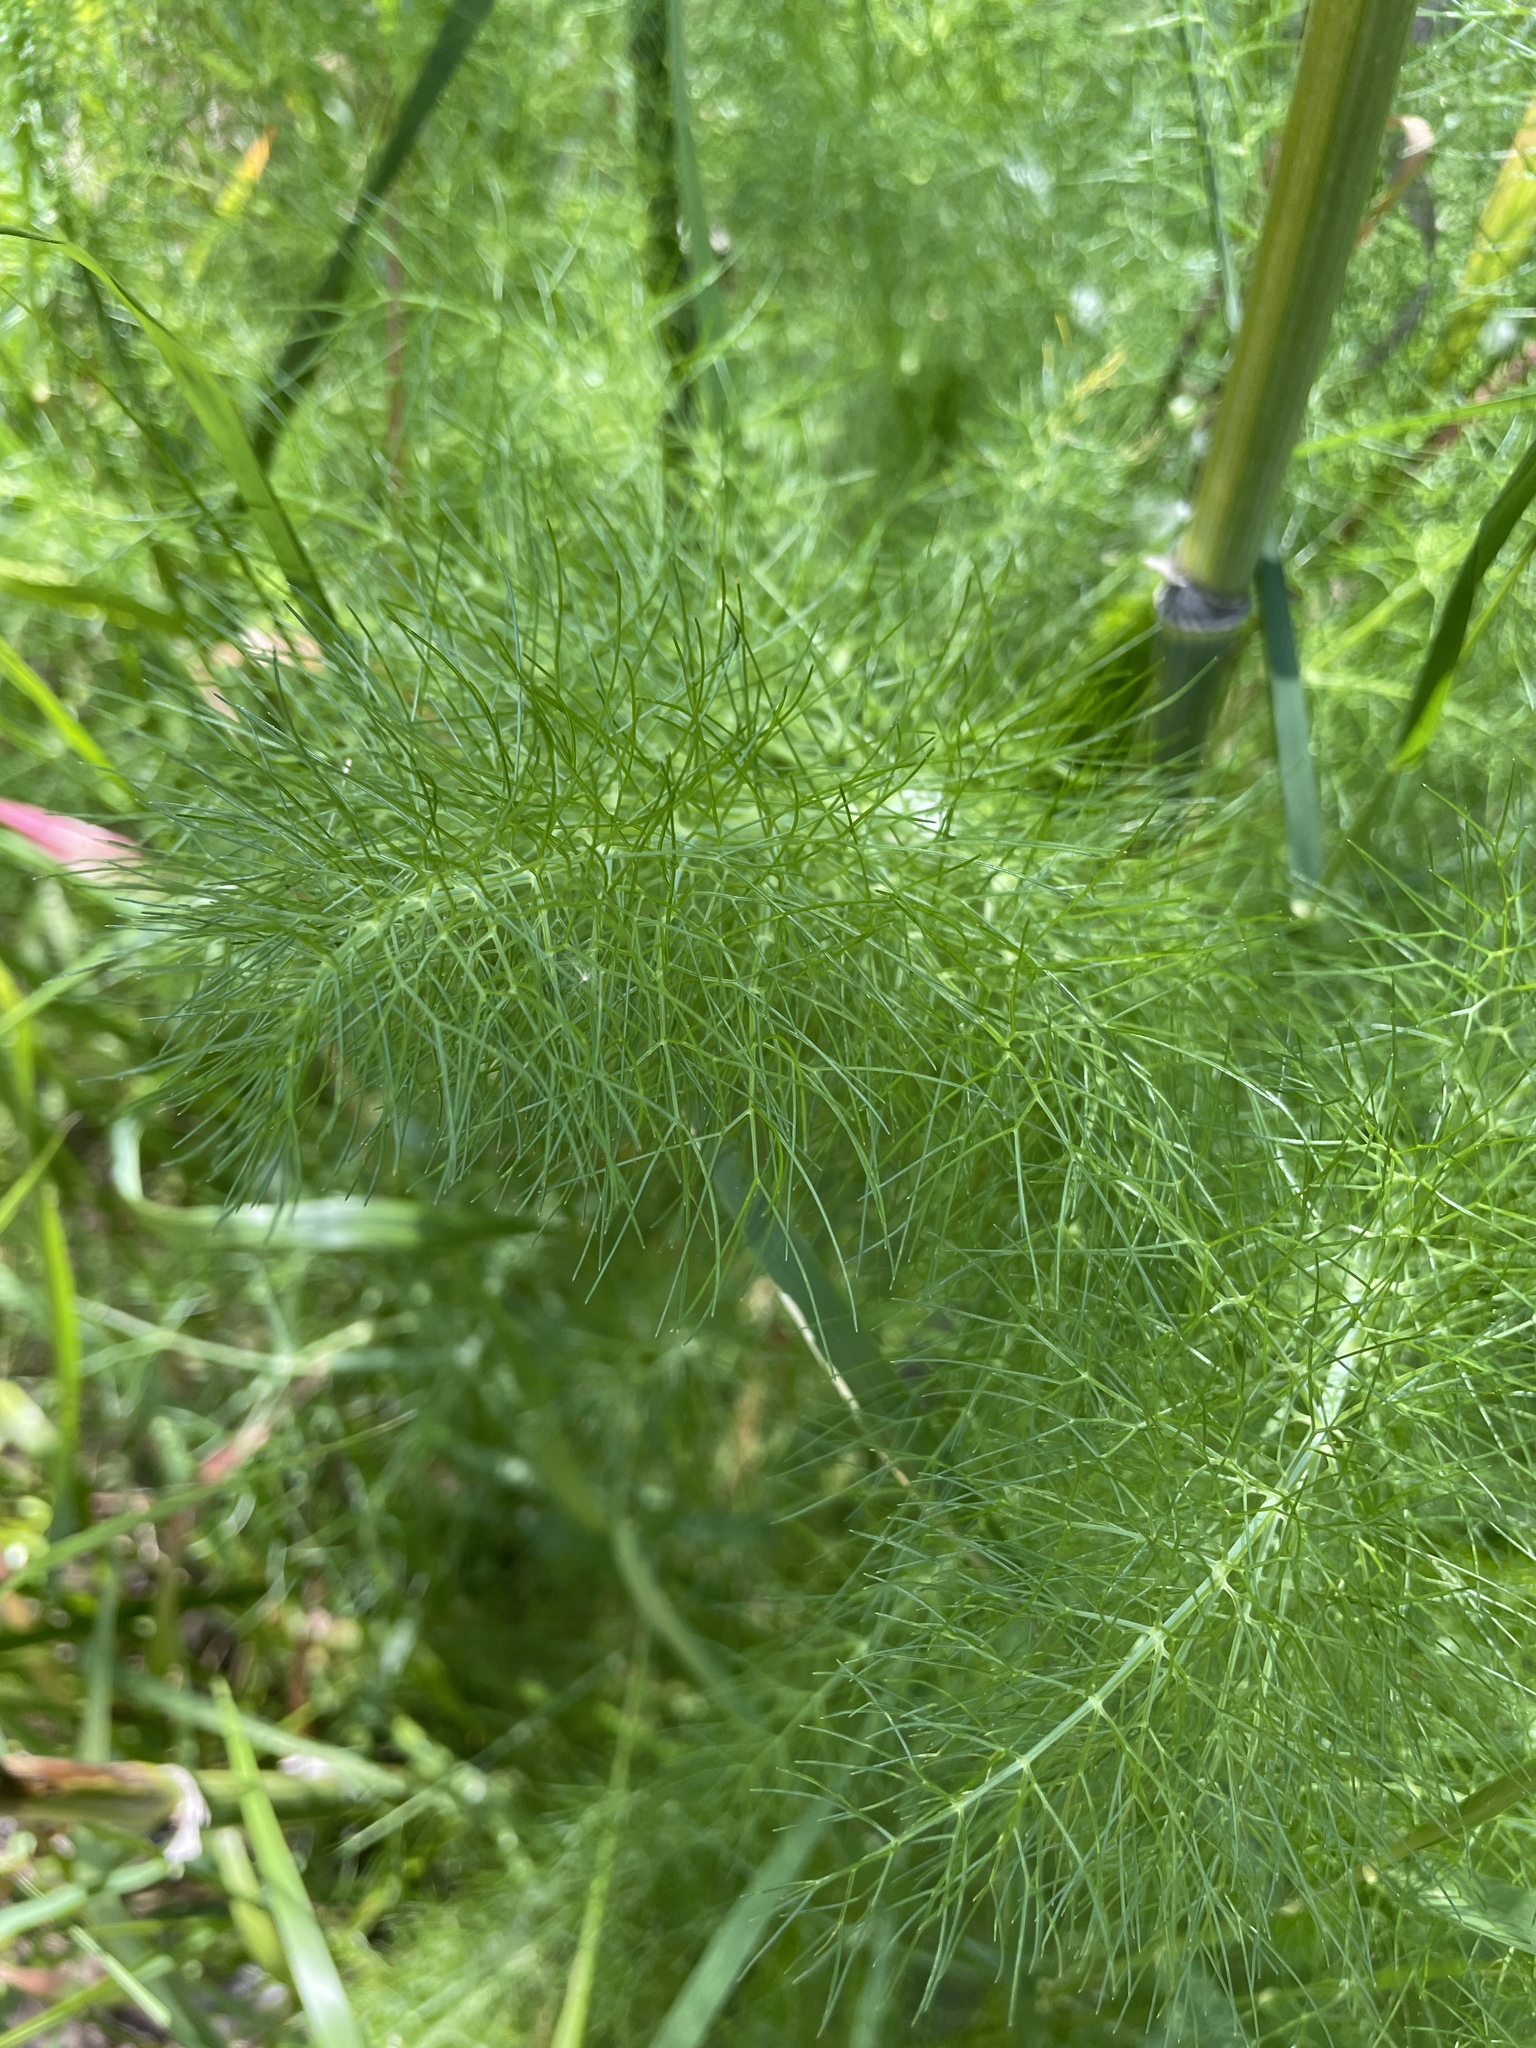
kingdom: Plantae
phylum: Tracheophyta
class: Magnoliopsida
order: Apiales
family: Apiaceae
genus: Foeniculum
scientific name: Foeniculum vulgare
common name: Fennel
